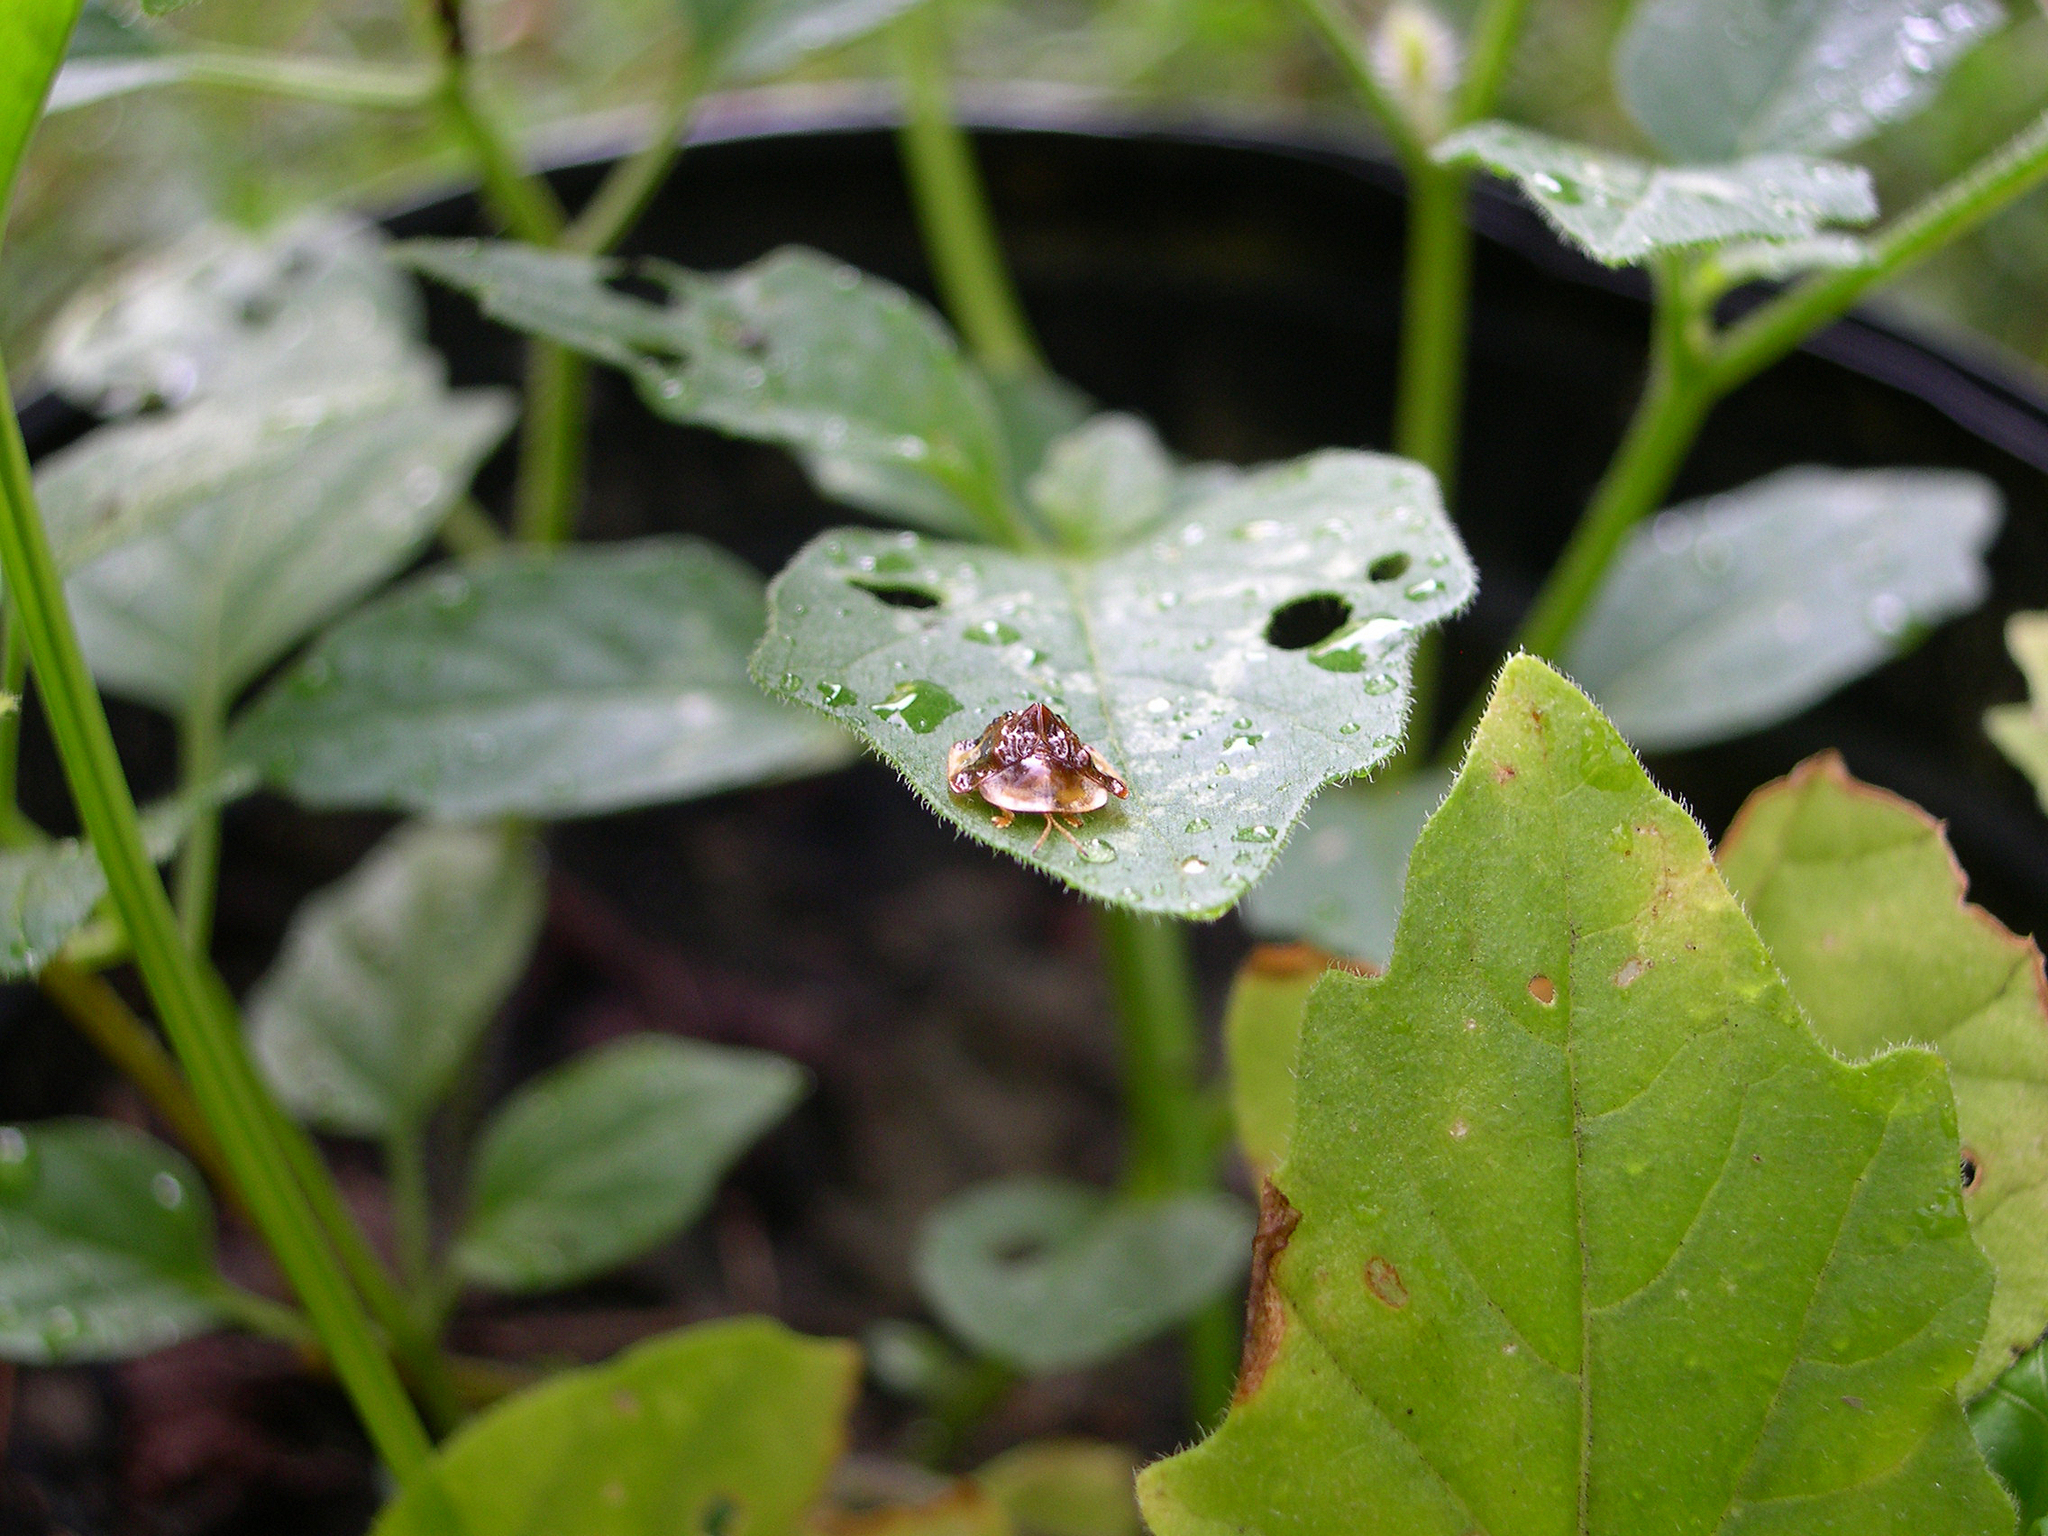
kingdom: Animalia
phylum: Arthropoda
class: Insecta
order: Coleoptera
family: Chrysomelidae
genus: Helocassis
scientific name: Helocassis clavata
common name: Clavate tortoise beetle
